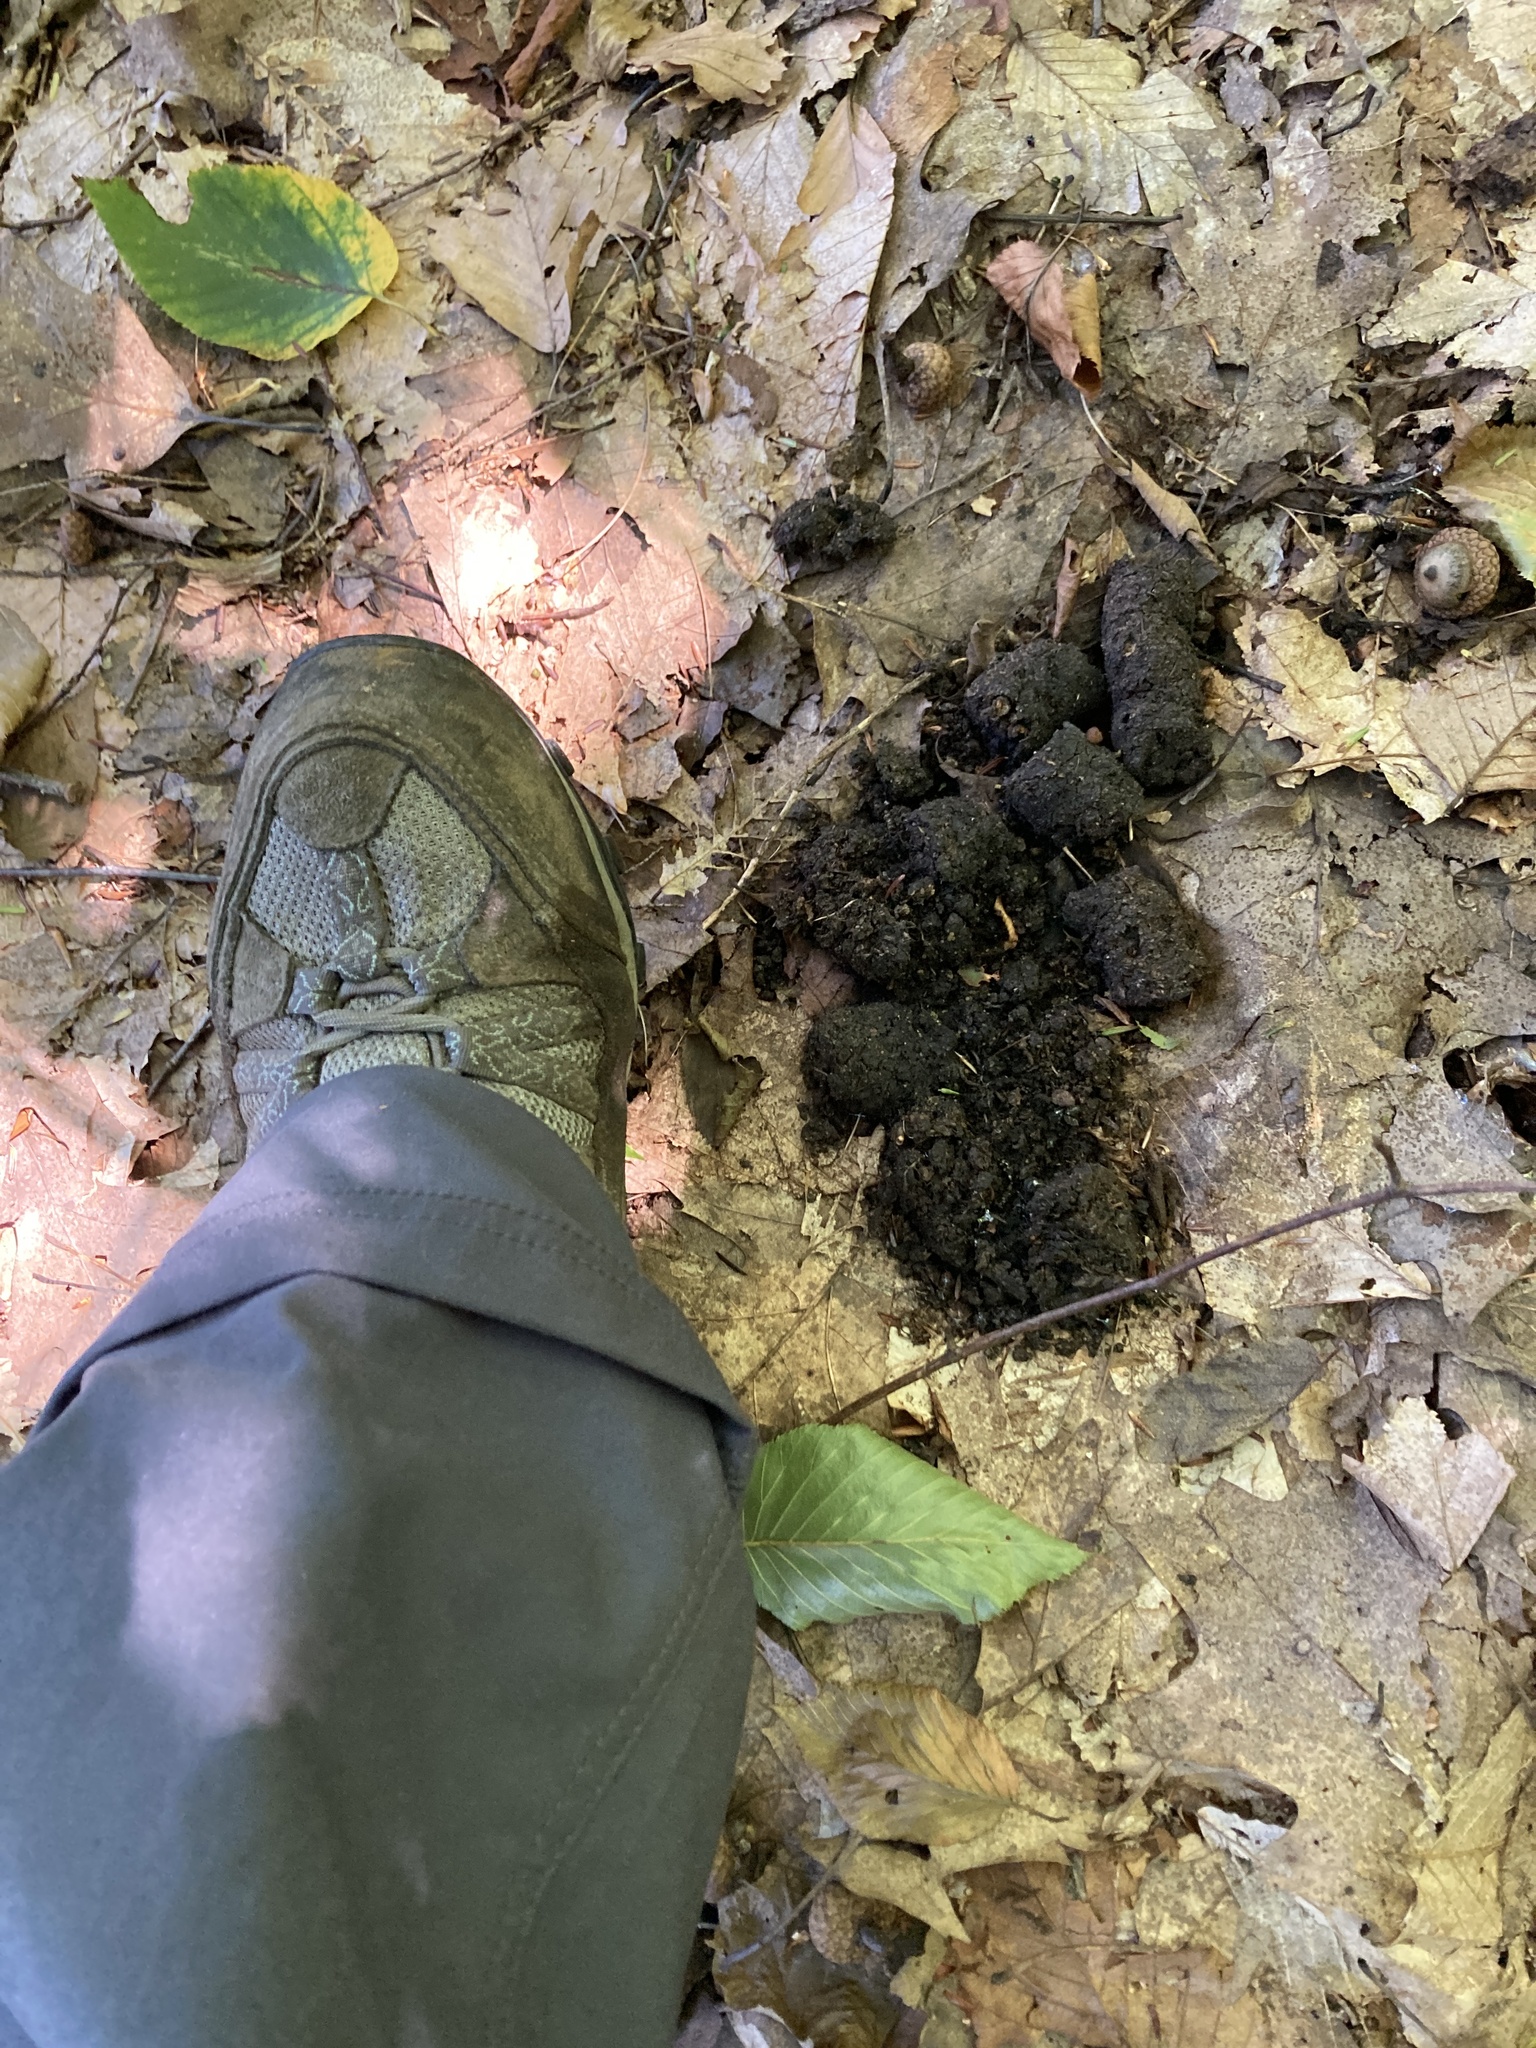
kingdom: Animalia
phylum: Chordata
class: Mammalia
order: Carnivora
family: Ursidae
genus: Ursus
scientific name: Ursus americanus
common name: American black bear
